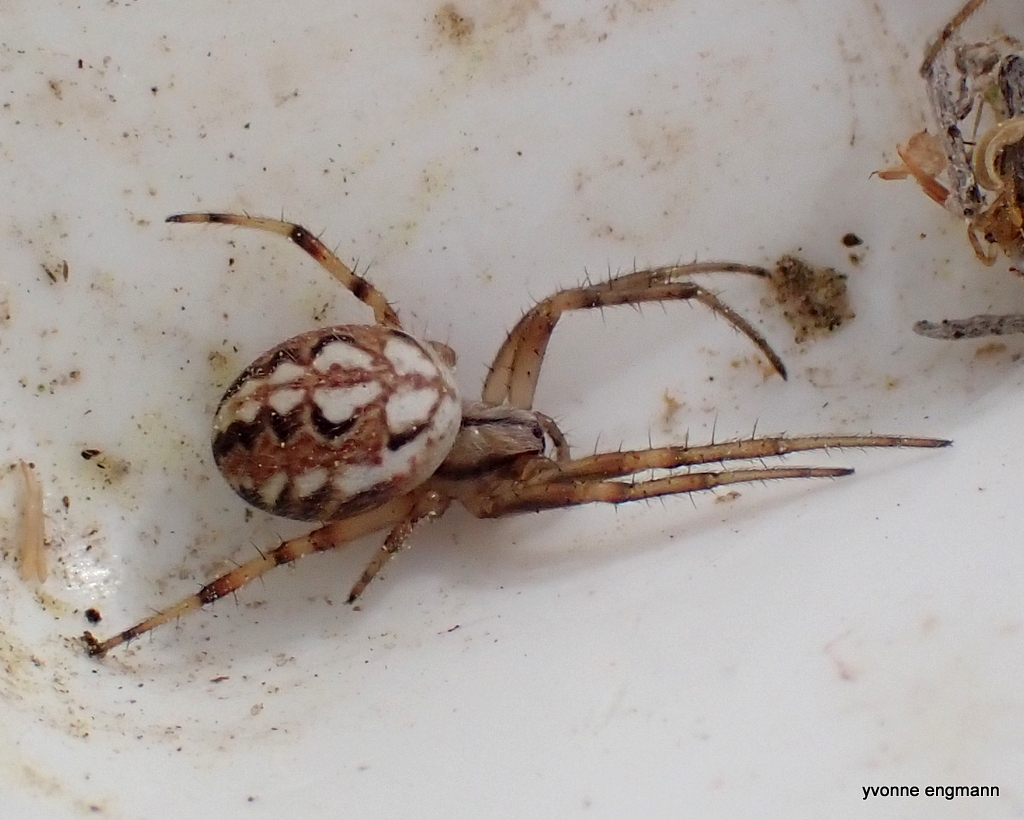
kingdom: Animalia
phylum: Arthropoda
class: Arachnida
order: Araneae
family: Araneidae
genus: Neoscona
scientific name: Neoscona adianta
